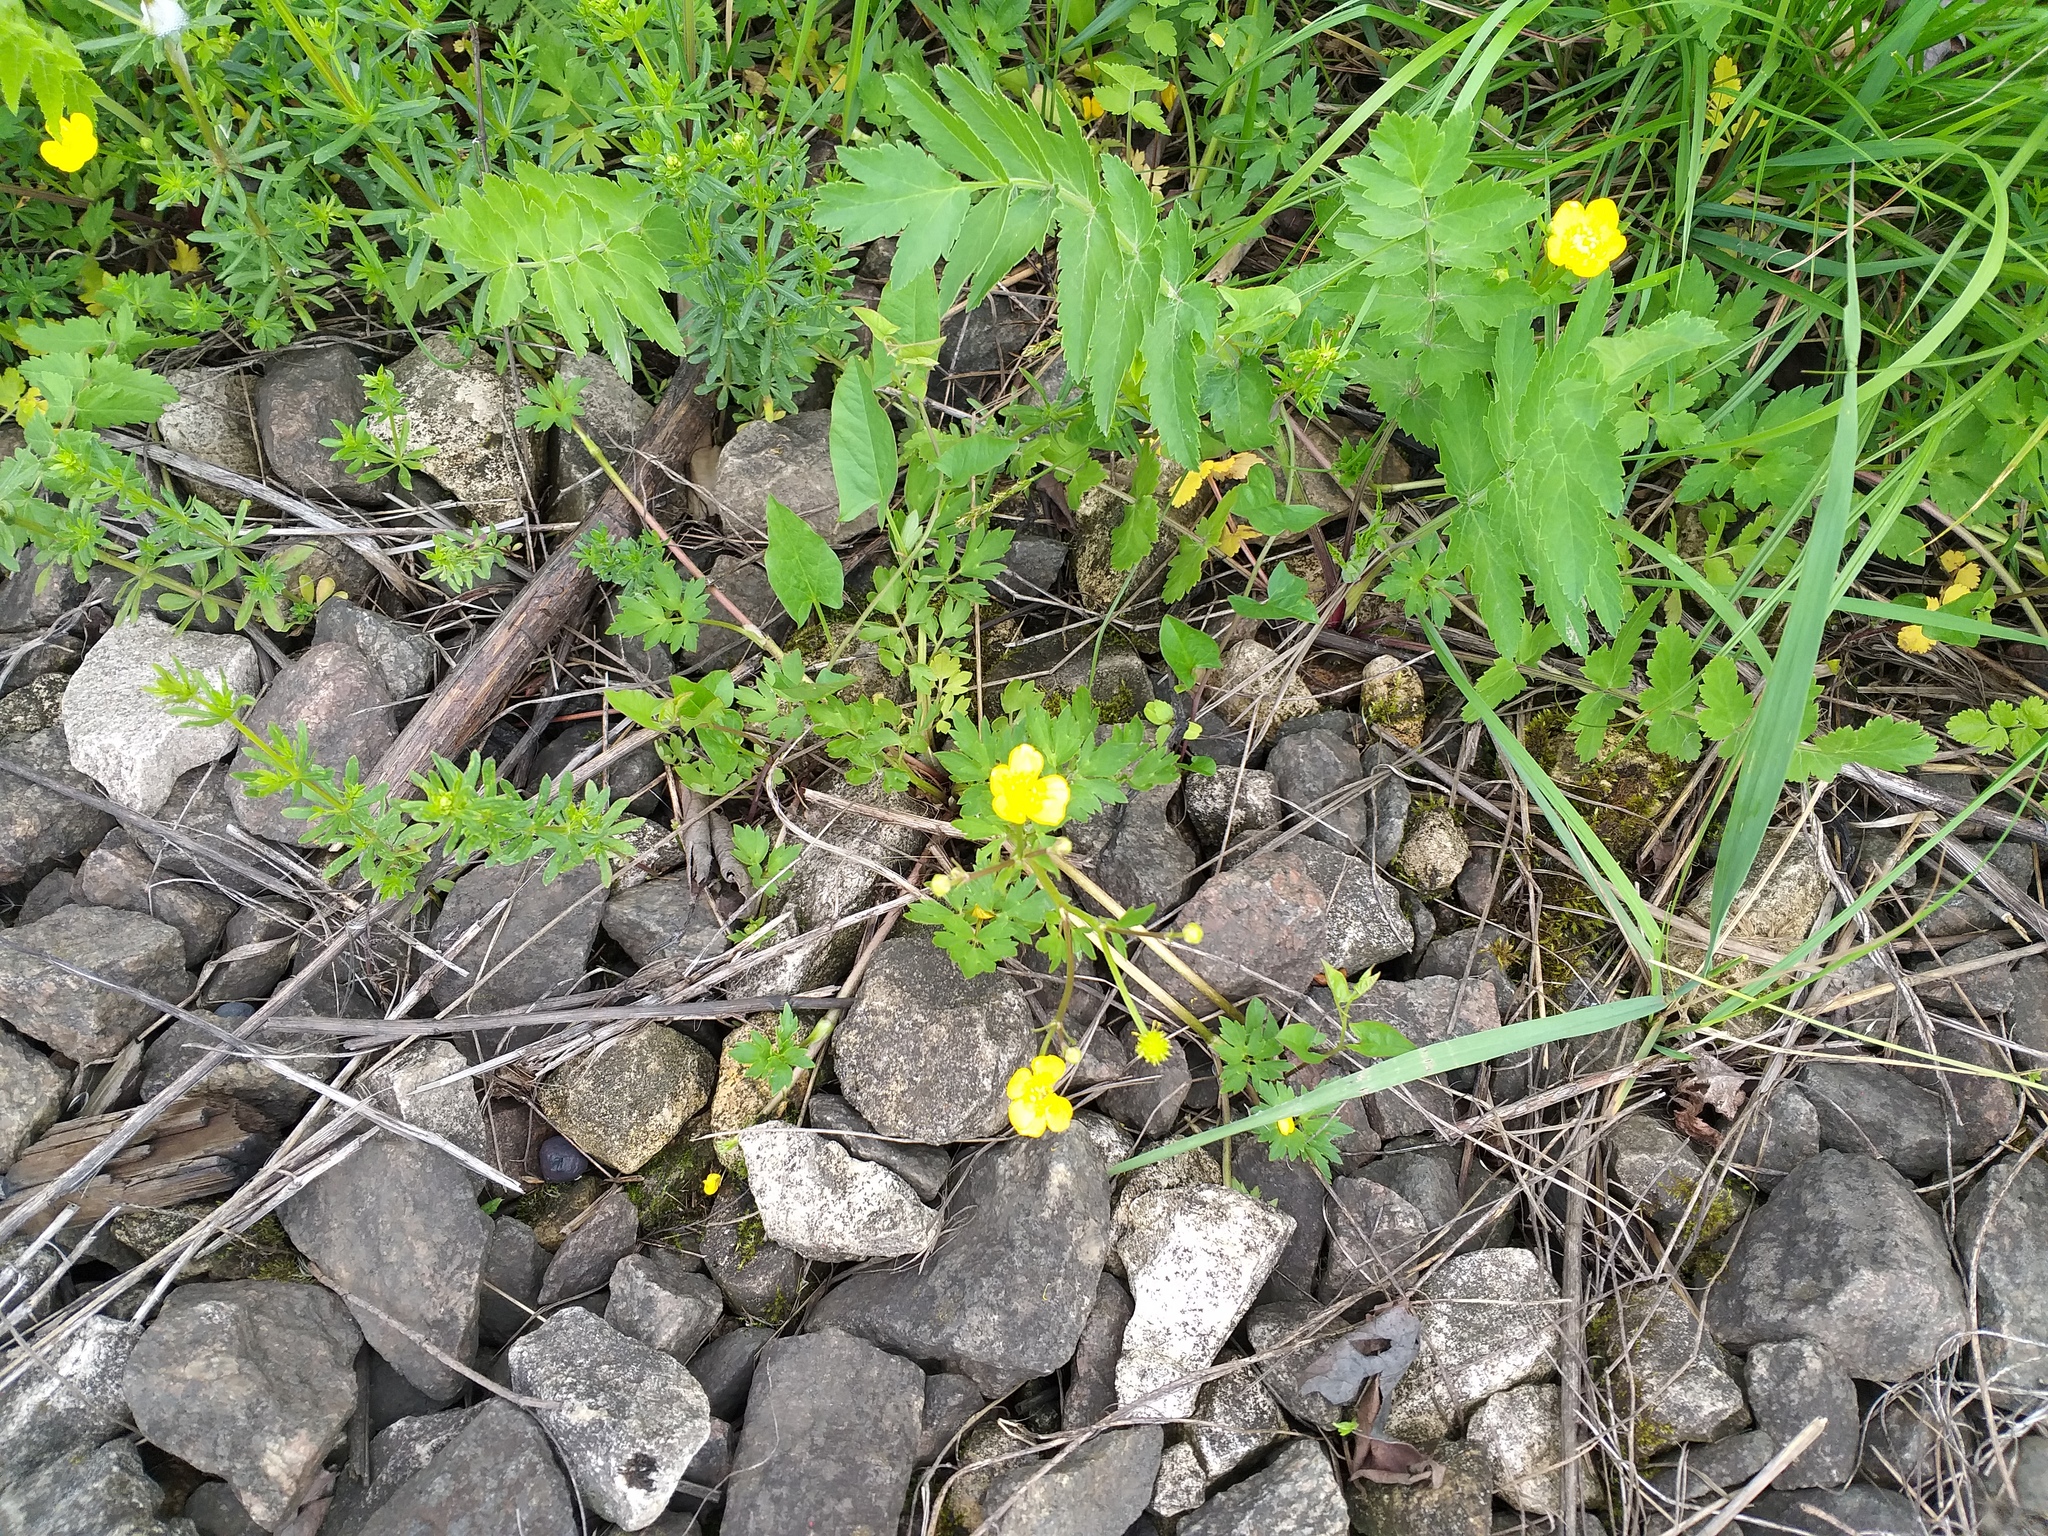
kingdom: Plantae
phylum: Tracheophyta
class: Magnoliopsida
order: Ranunculales
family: Ranunculaceae
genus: Ranunculus
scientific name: Ranunculus repens
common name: Creeping buttercup
